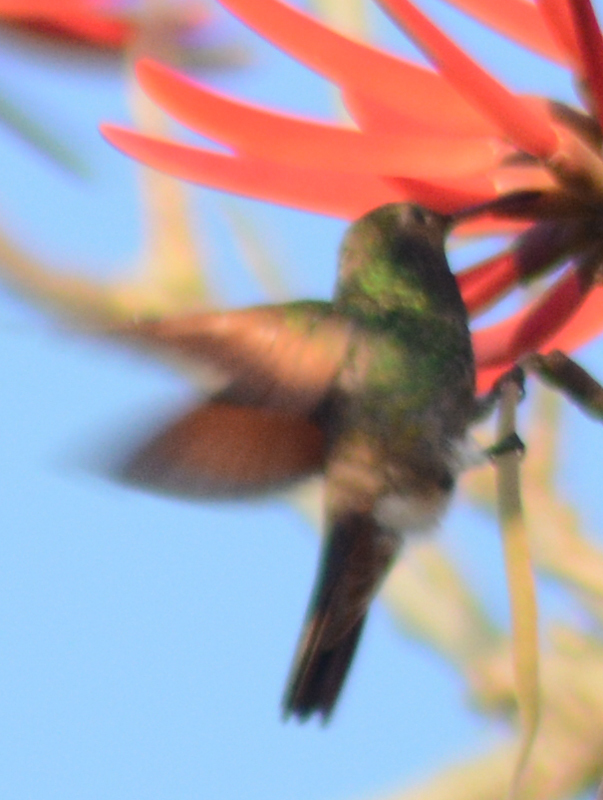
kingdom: Animalia
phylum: Chordata
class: Aves
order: Apodiformes
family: Trochilidae
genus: Saucerottia
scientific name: Saucerottia beryllina
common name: Berylline hummingbird
